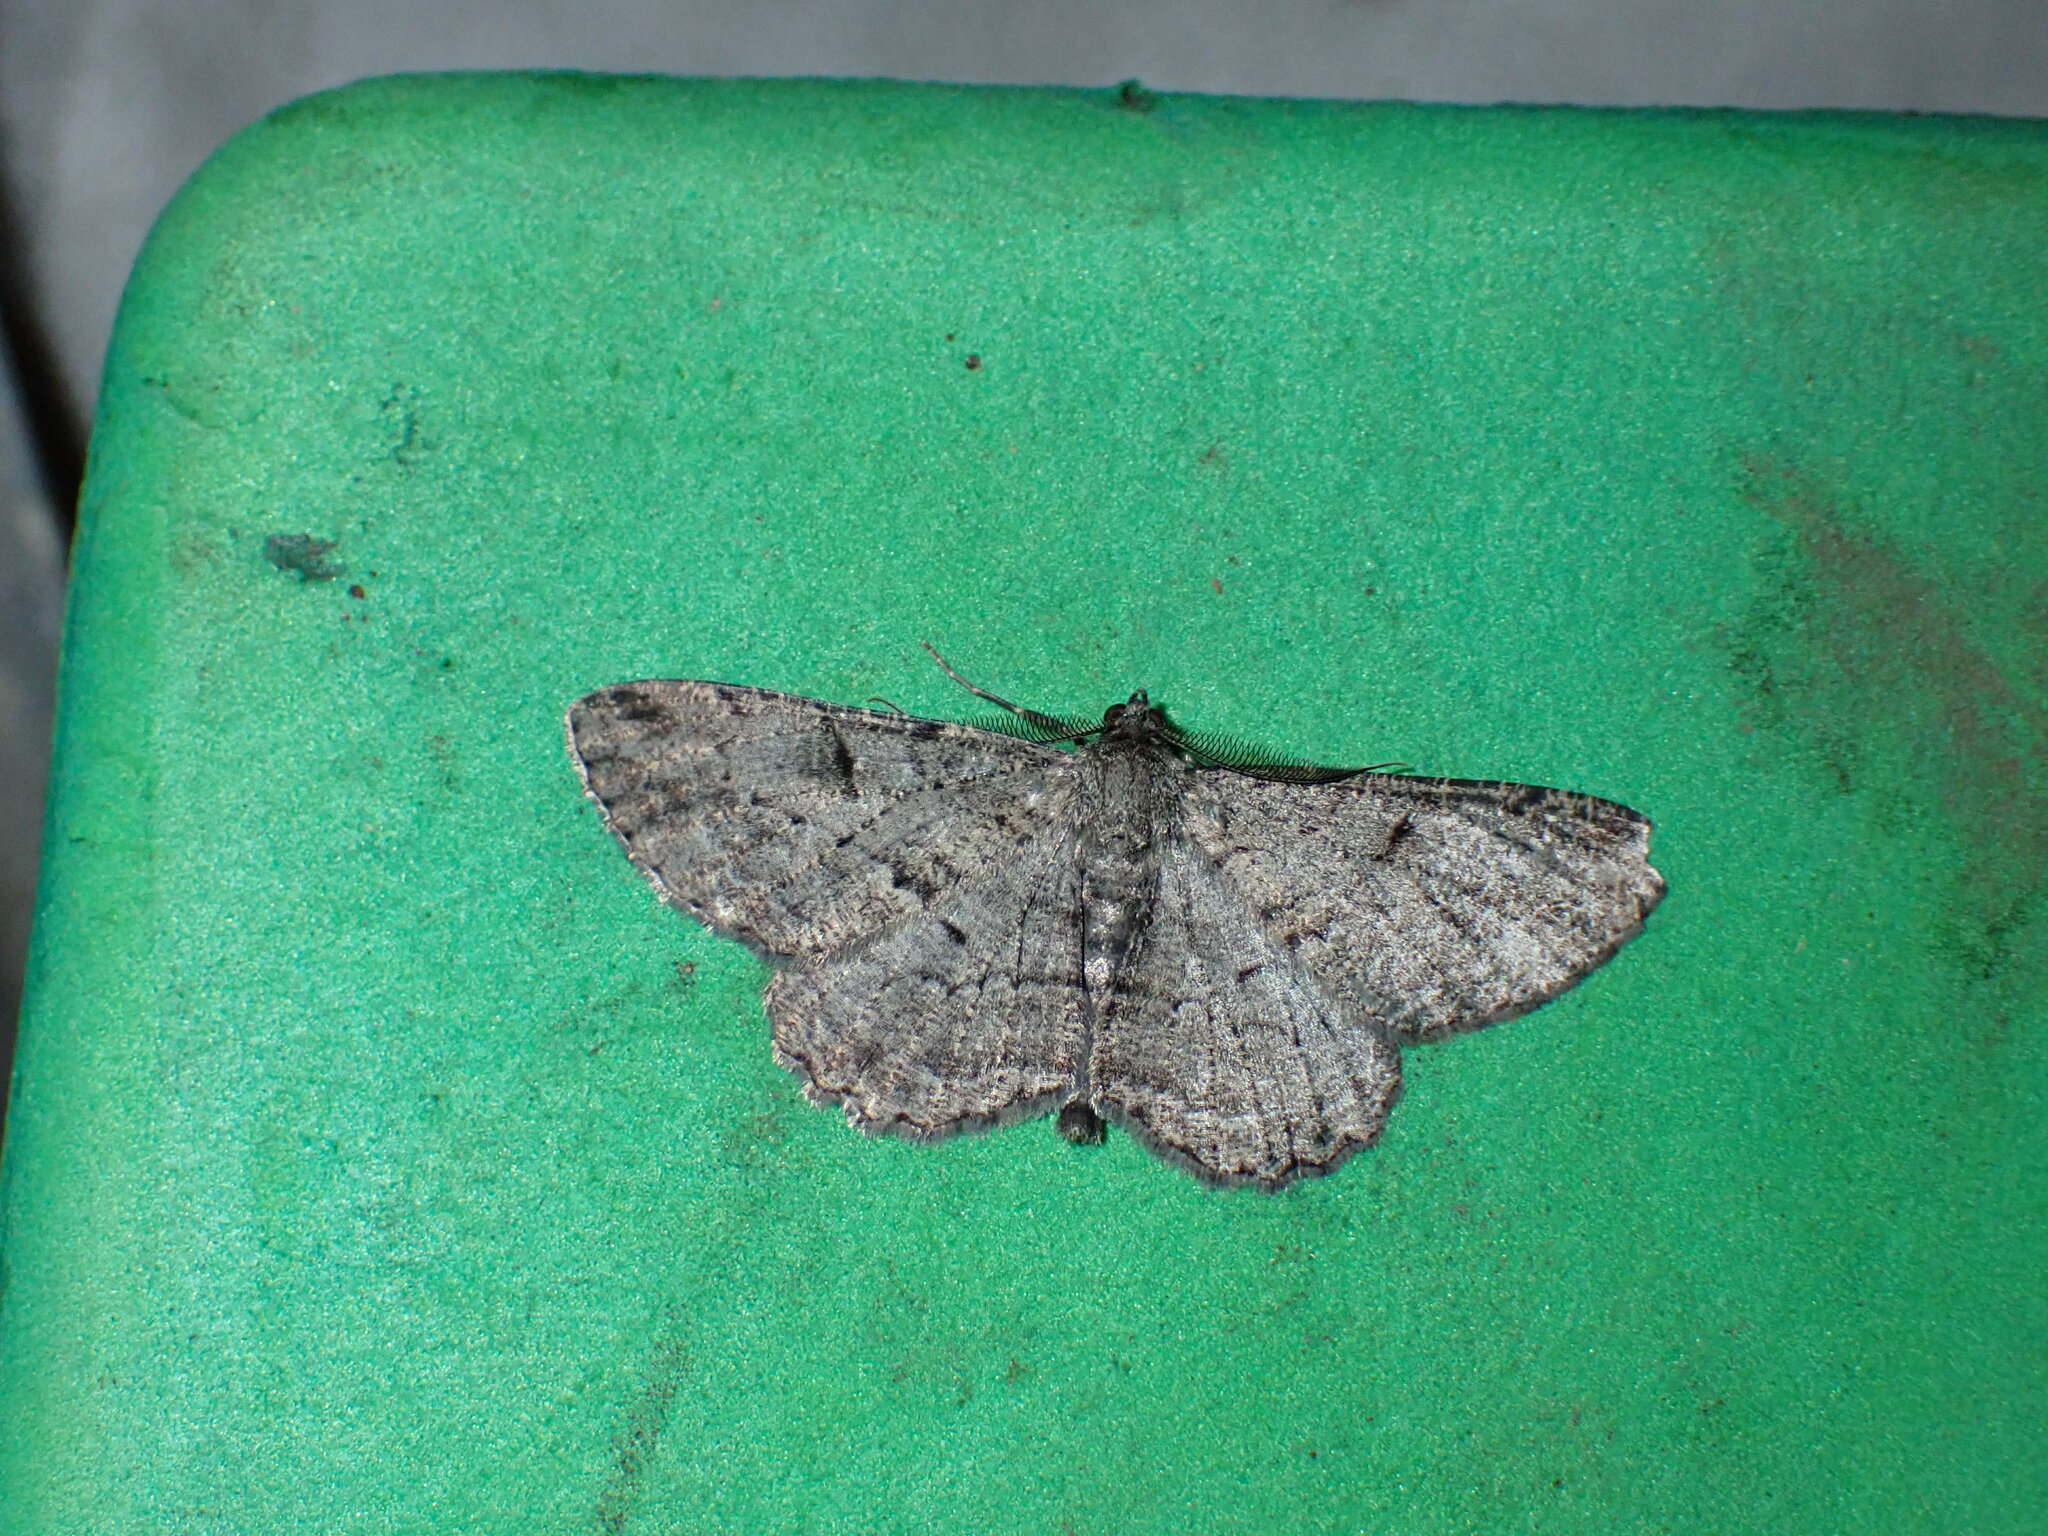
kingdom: Animalia
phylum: Arthropoda
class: Insecta
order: Lepidoptera
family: Geometridae
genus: Peribatodes
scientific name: Peribatodes rhomboidaria
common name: Willow beauty
